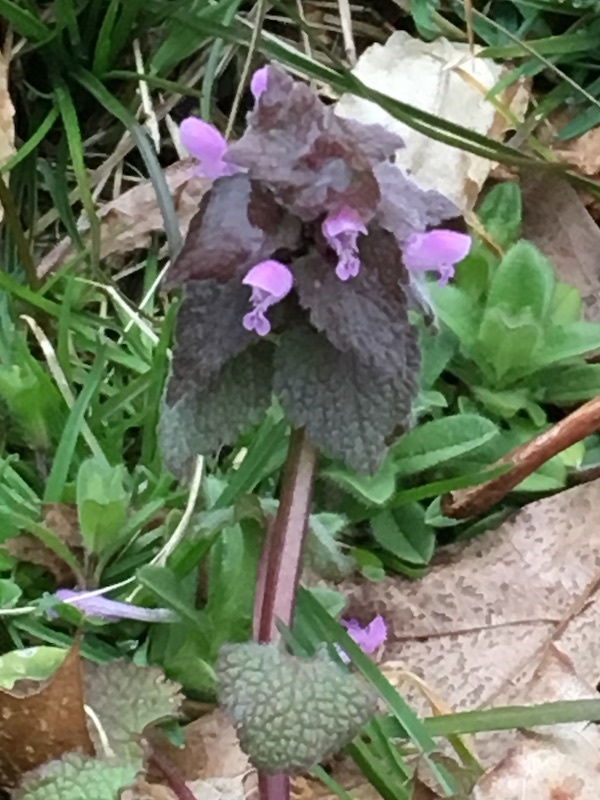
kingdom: Plantae
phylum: Tracheophyta
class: Magnoliopsida
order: Lamiales
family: Lamiaceae
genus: Lamium
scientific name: Lamium purpureum
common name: Red dead-nettle
